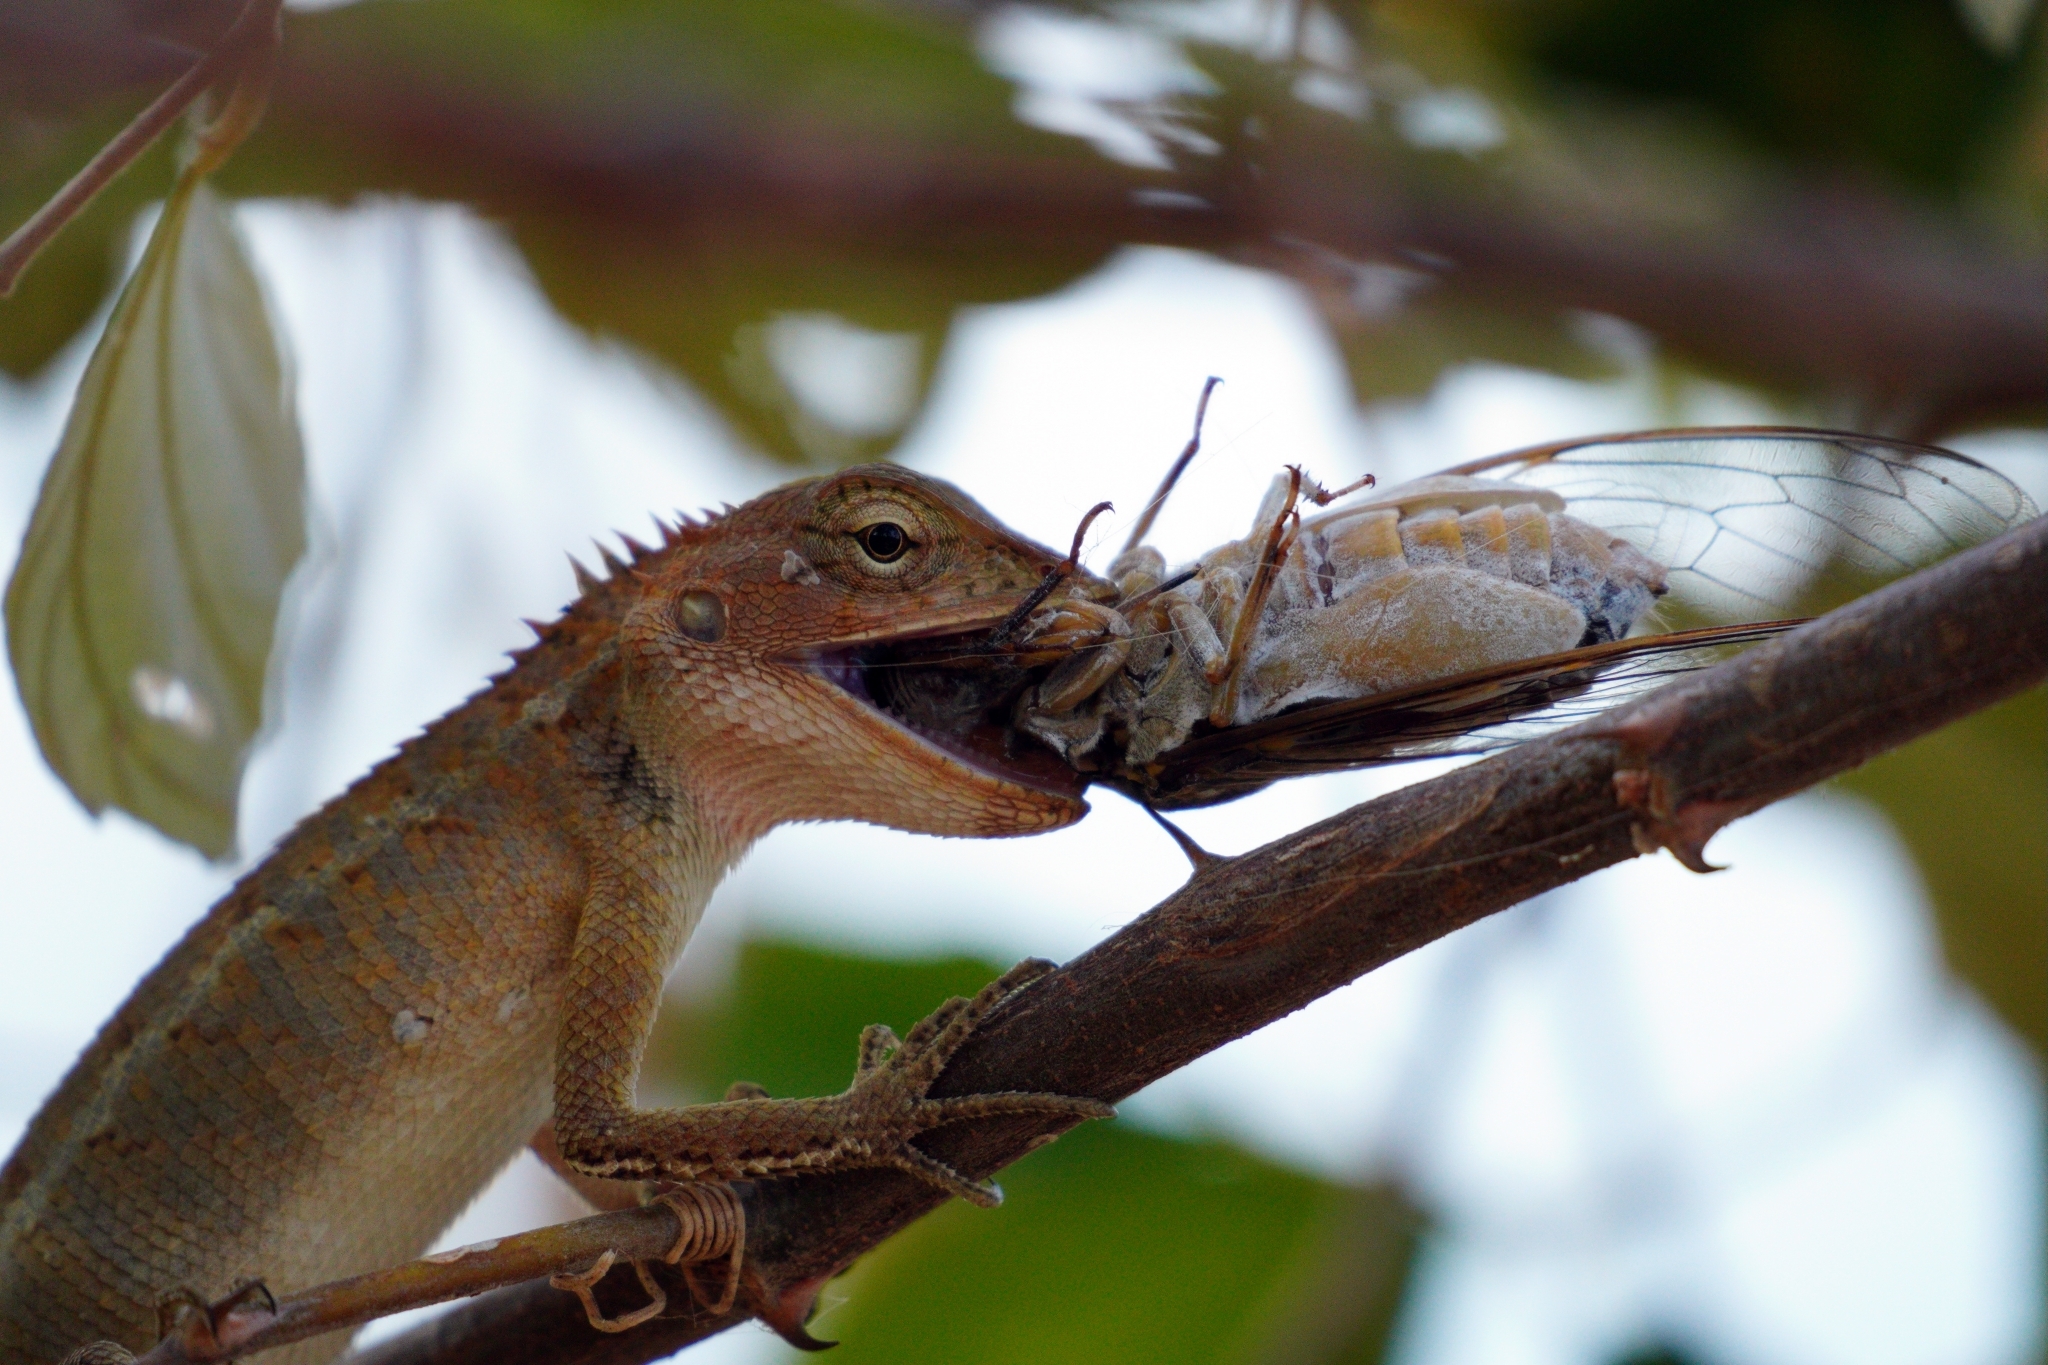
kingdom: Animalia
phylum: Chordata
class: Squamata
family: Agamidae
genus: Calotes
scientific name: Calotes versicolor
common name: Oriental garden lizard
